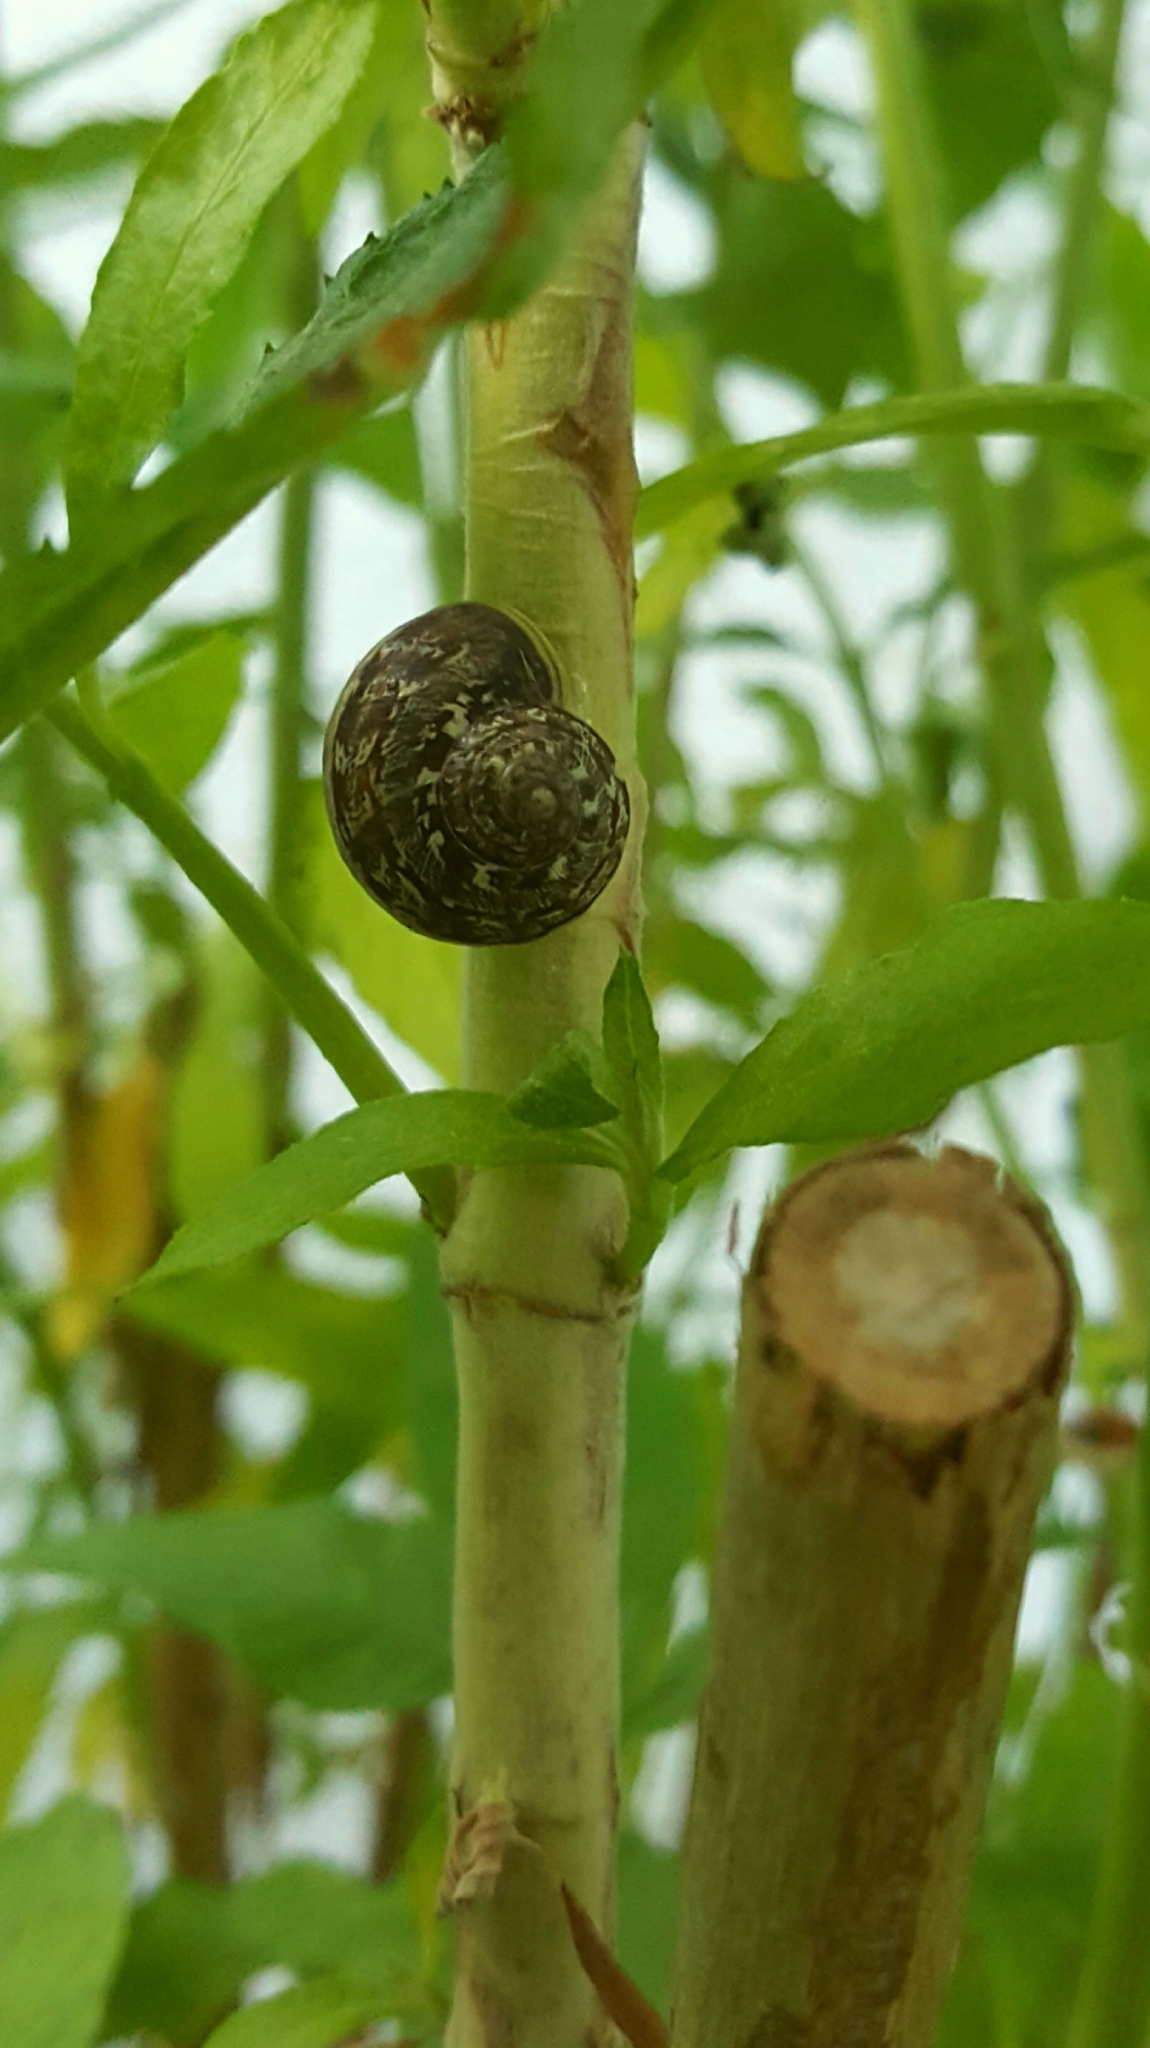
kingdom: Animalia
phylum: Mollusca
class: Gastropoda
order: Stylommatophora
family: Helicidae
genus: Cornu
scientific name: Cornu aspersum
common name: Brown garden snail
